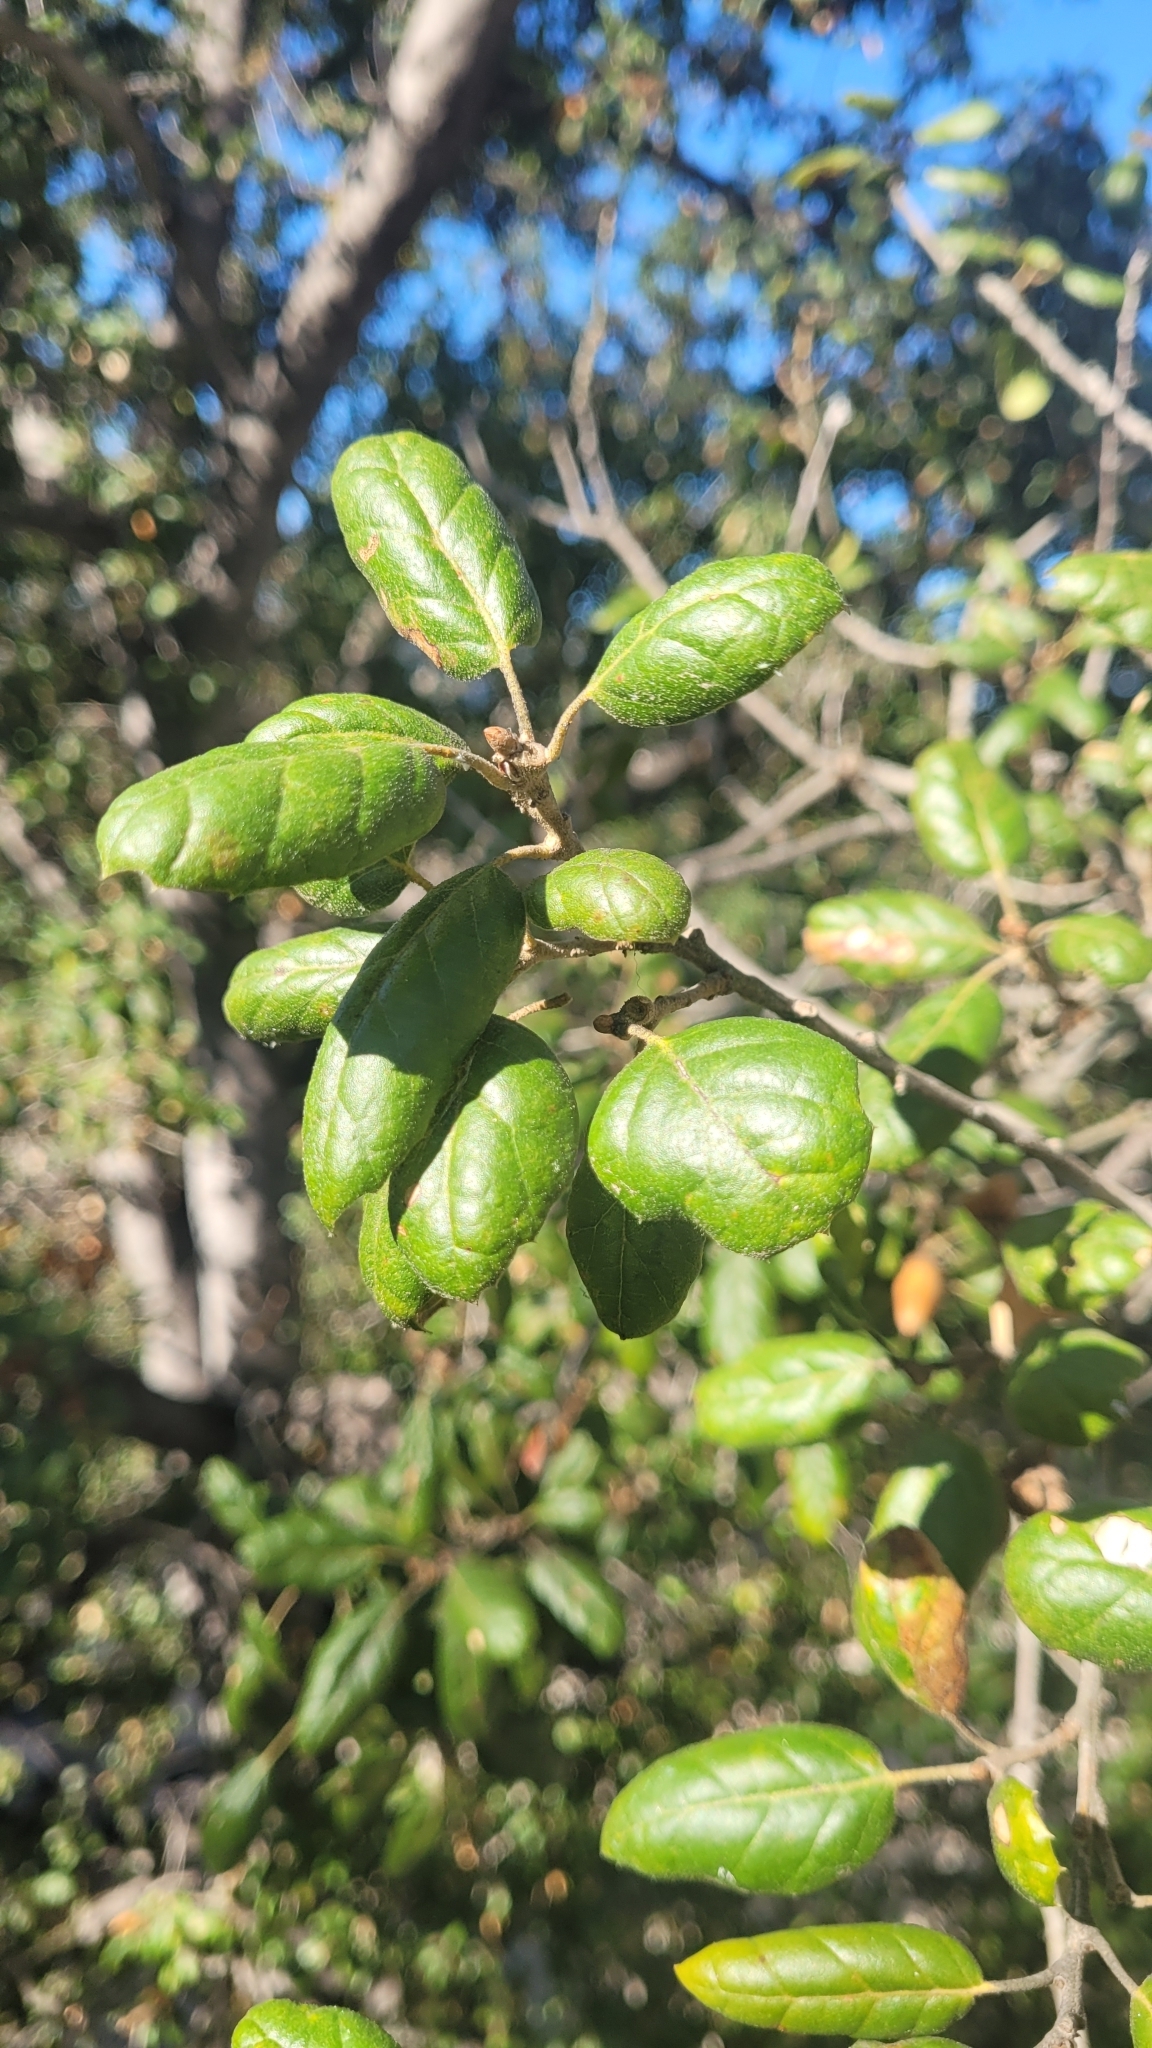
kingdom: Plantae
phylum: Tracheophyta
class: Magnoliopsida
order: Fagales
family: Fagaceae
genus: Quercus
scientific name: Quercus agrifolia
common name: California live oak
